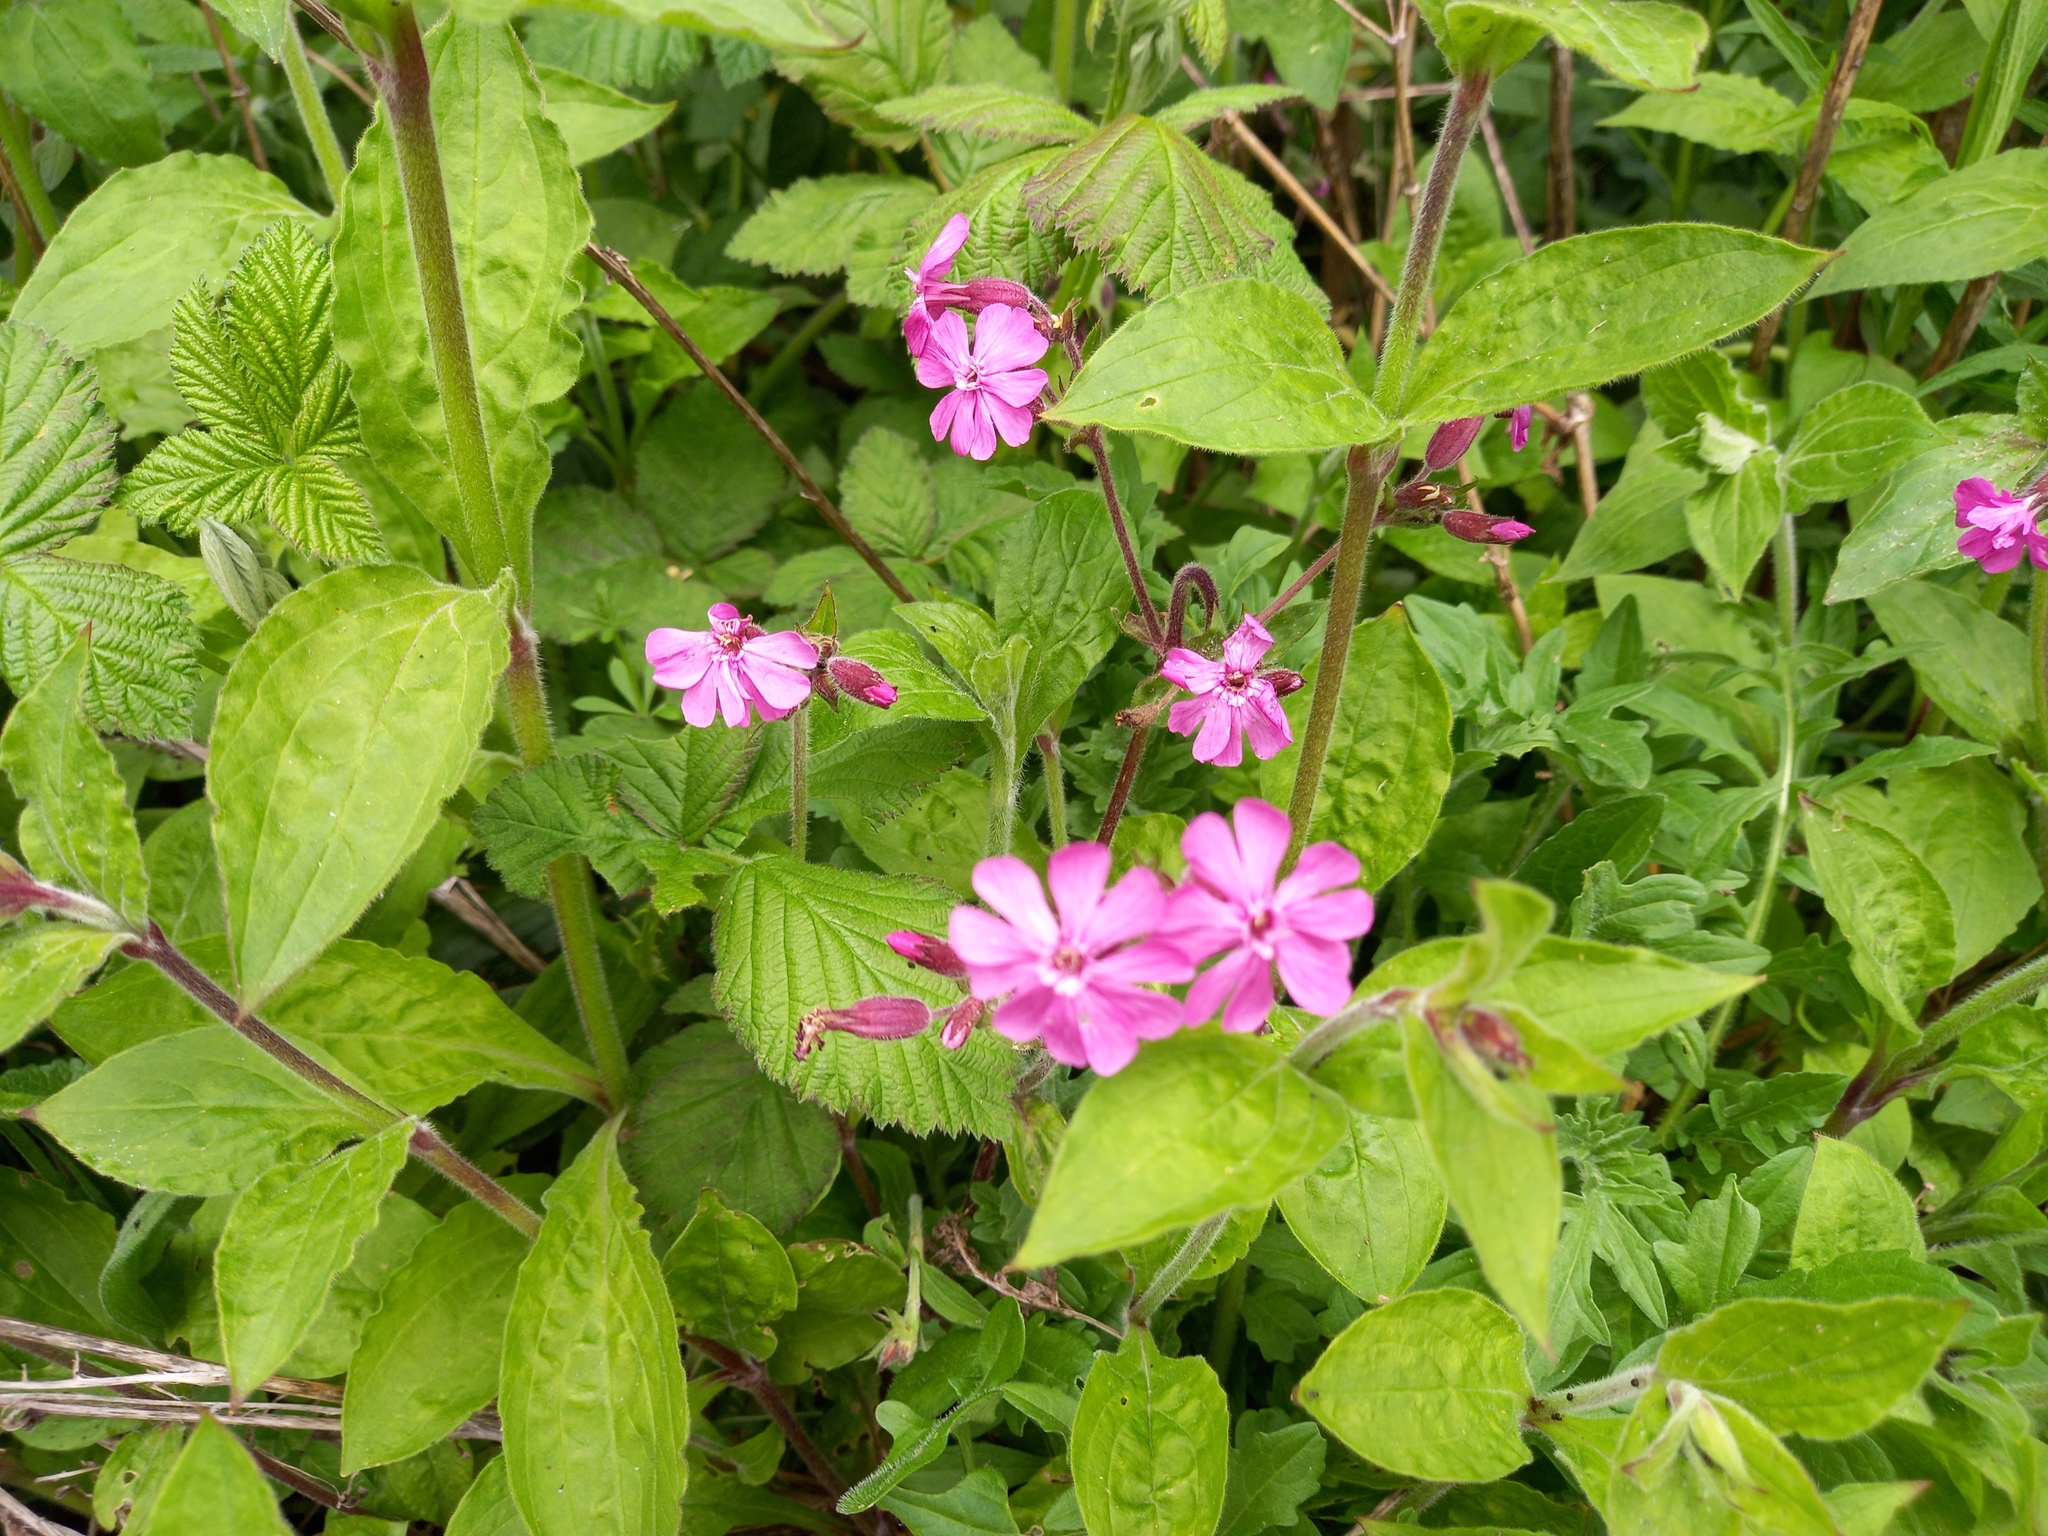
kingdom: Plantae
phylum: Tracheophyta
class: Magnoliopsida
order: Caryophyllales
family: Caryophyllaceae
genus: Silene
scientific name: Silene dioica
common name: Red campion
